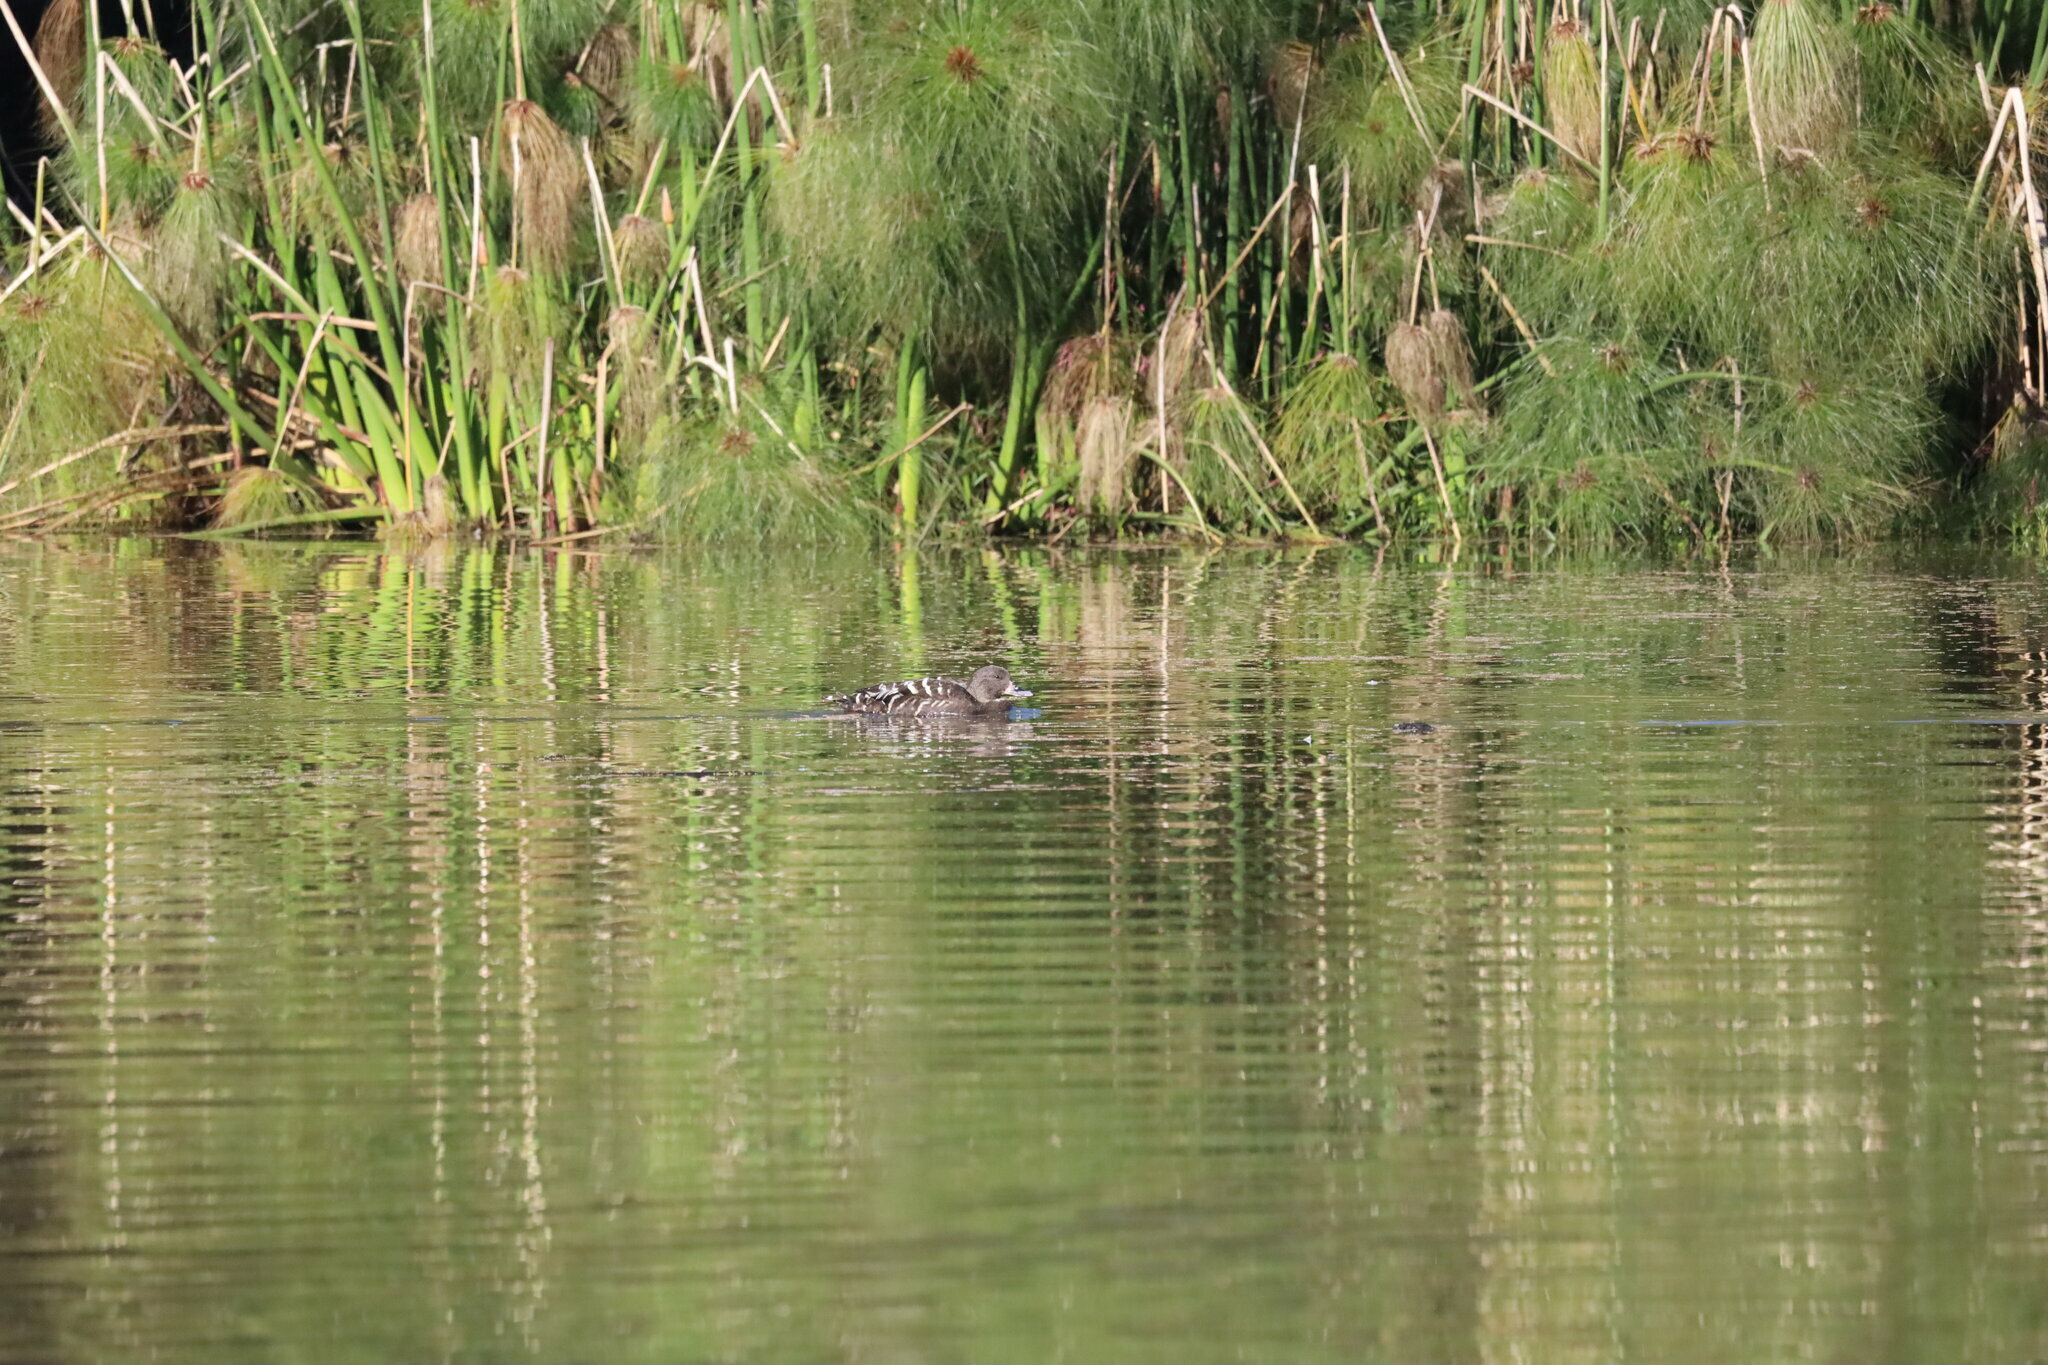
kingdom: Animalia
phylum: Chordata
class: Aves
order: Anseriformes
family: Anatidae
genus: Anas
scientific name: Anas sparsa
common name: African black duck
